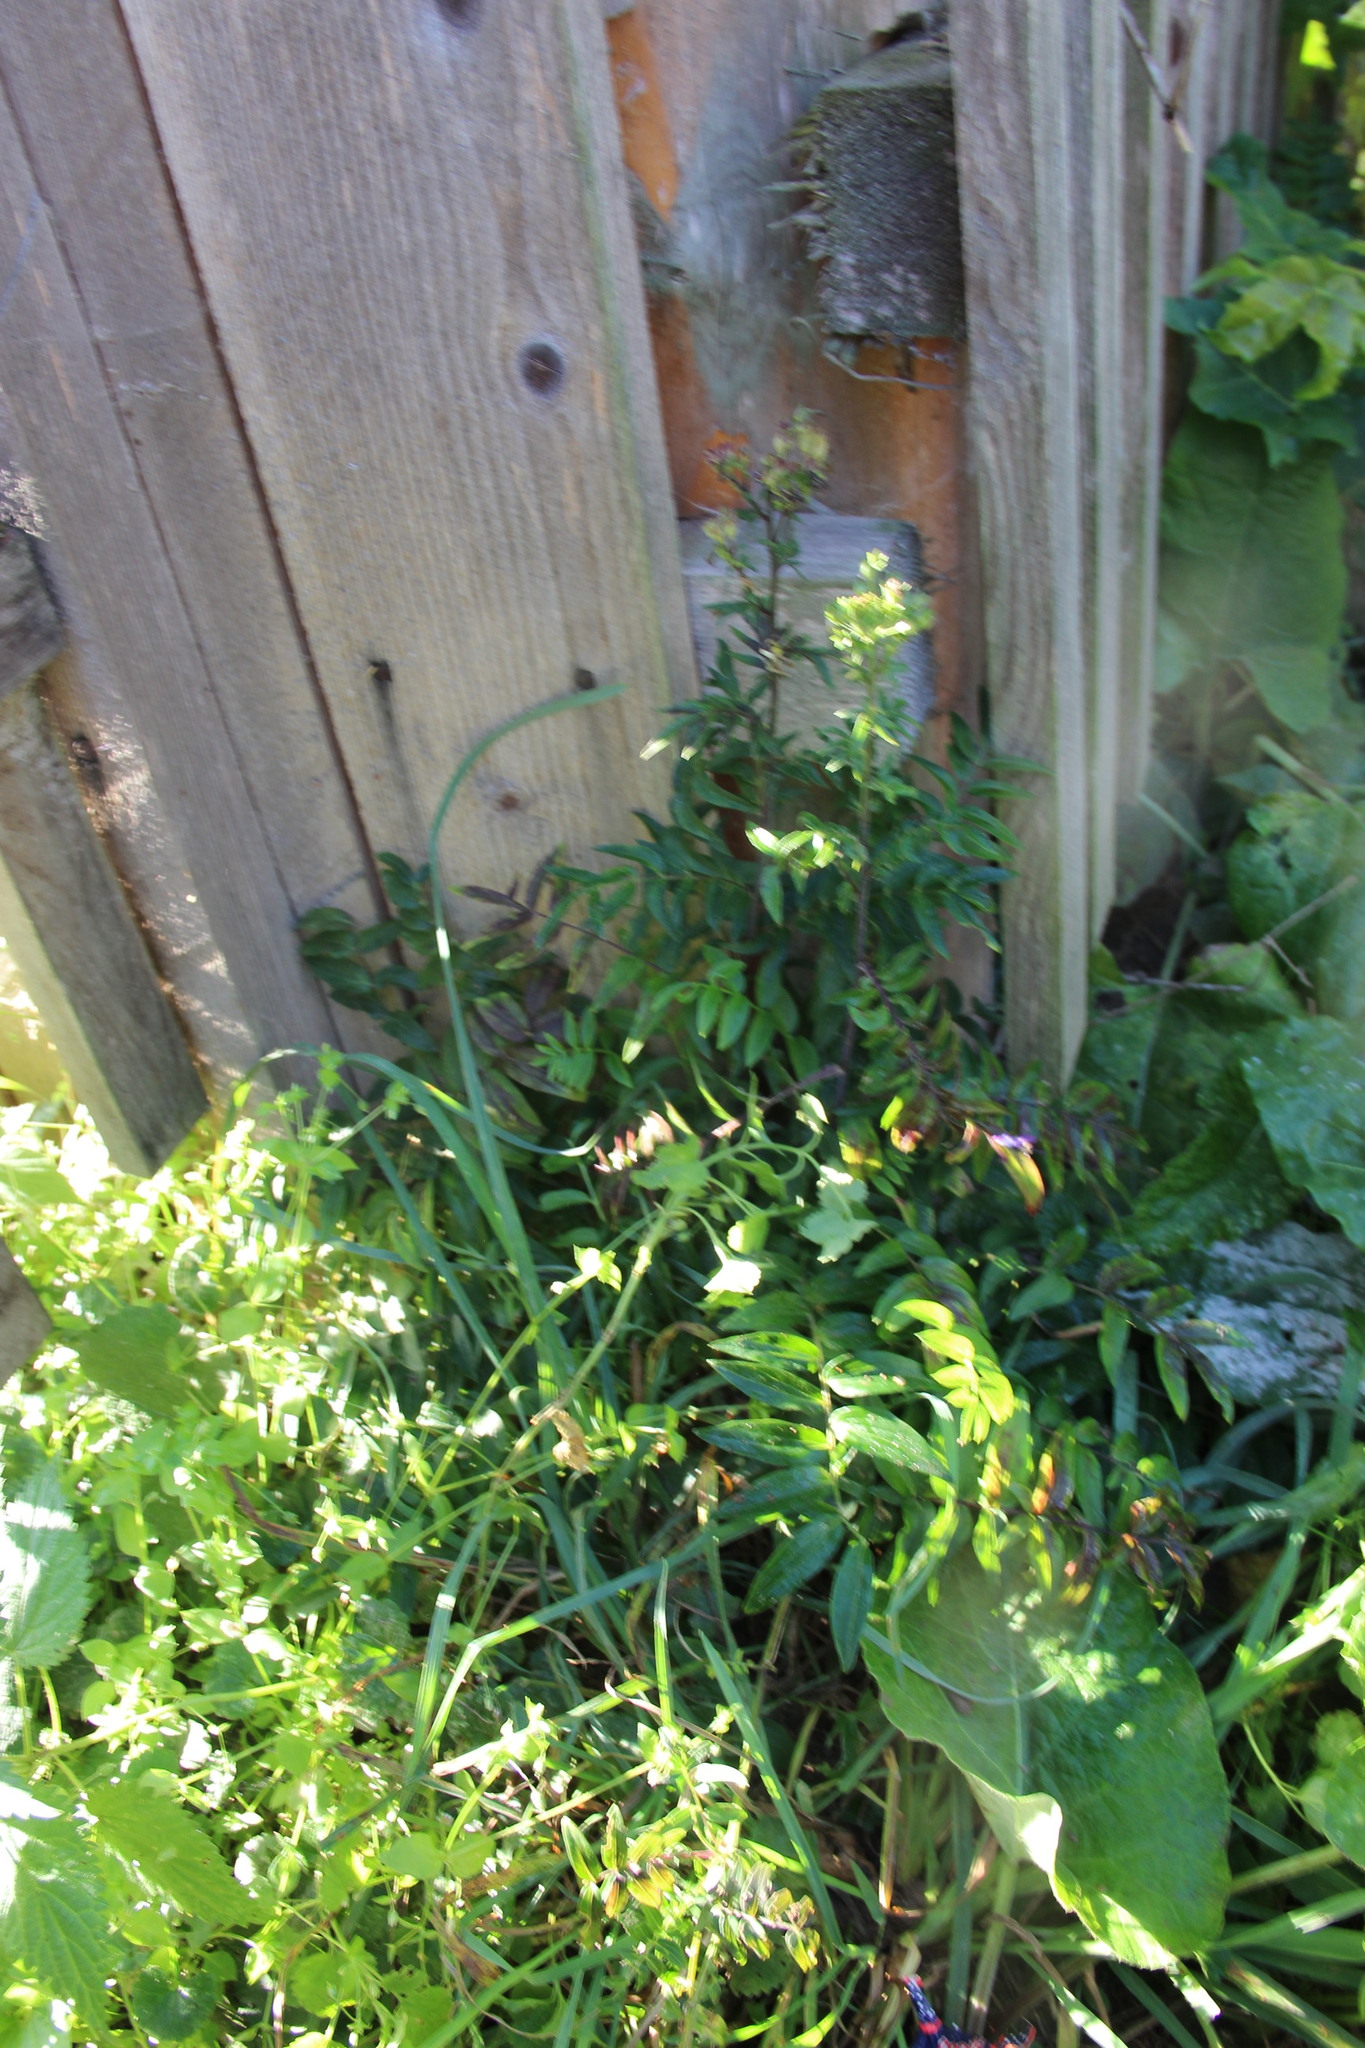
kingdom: Plantae
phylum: Tracheophyta
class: Magnoliopsida
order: Ericales
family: Polemoniaceae
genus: Polemonium
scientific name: Polemonium caeruleum
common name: Jacob's-ladder
